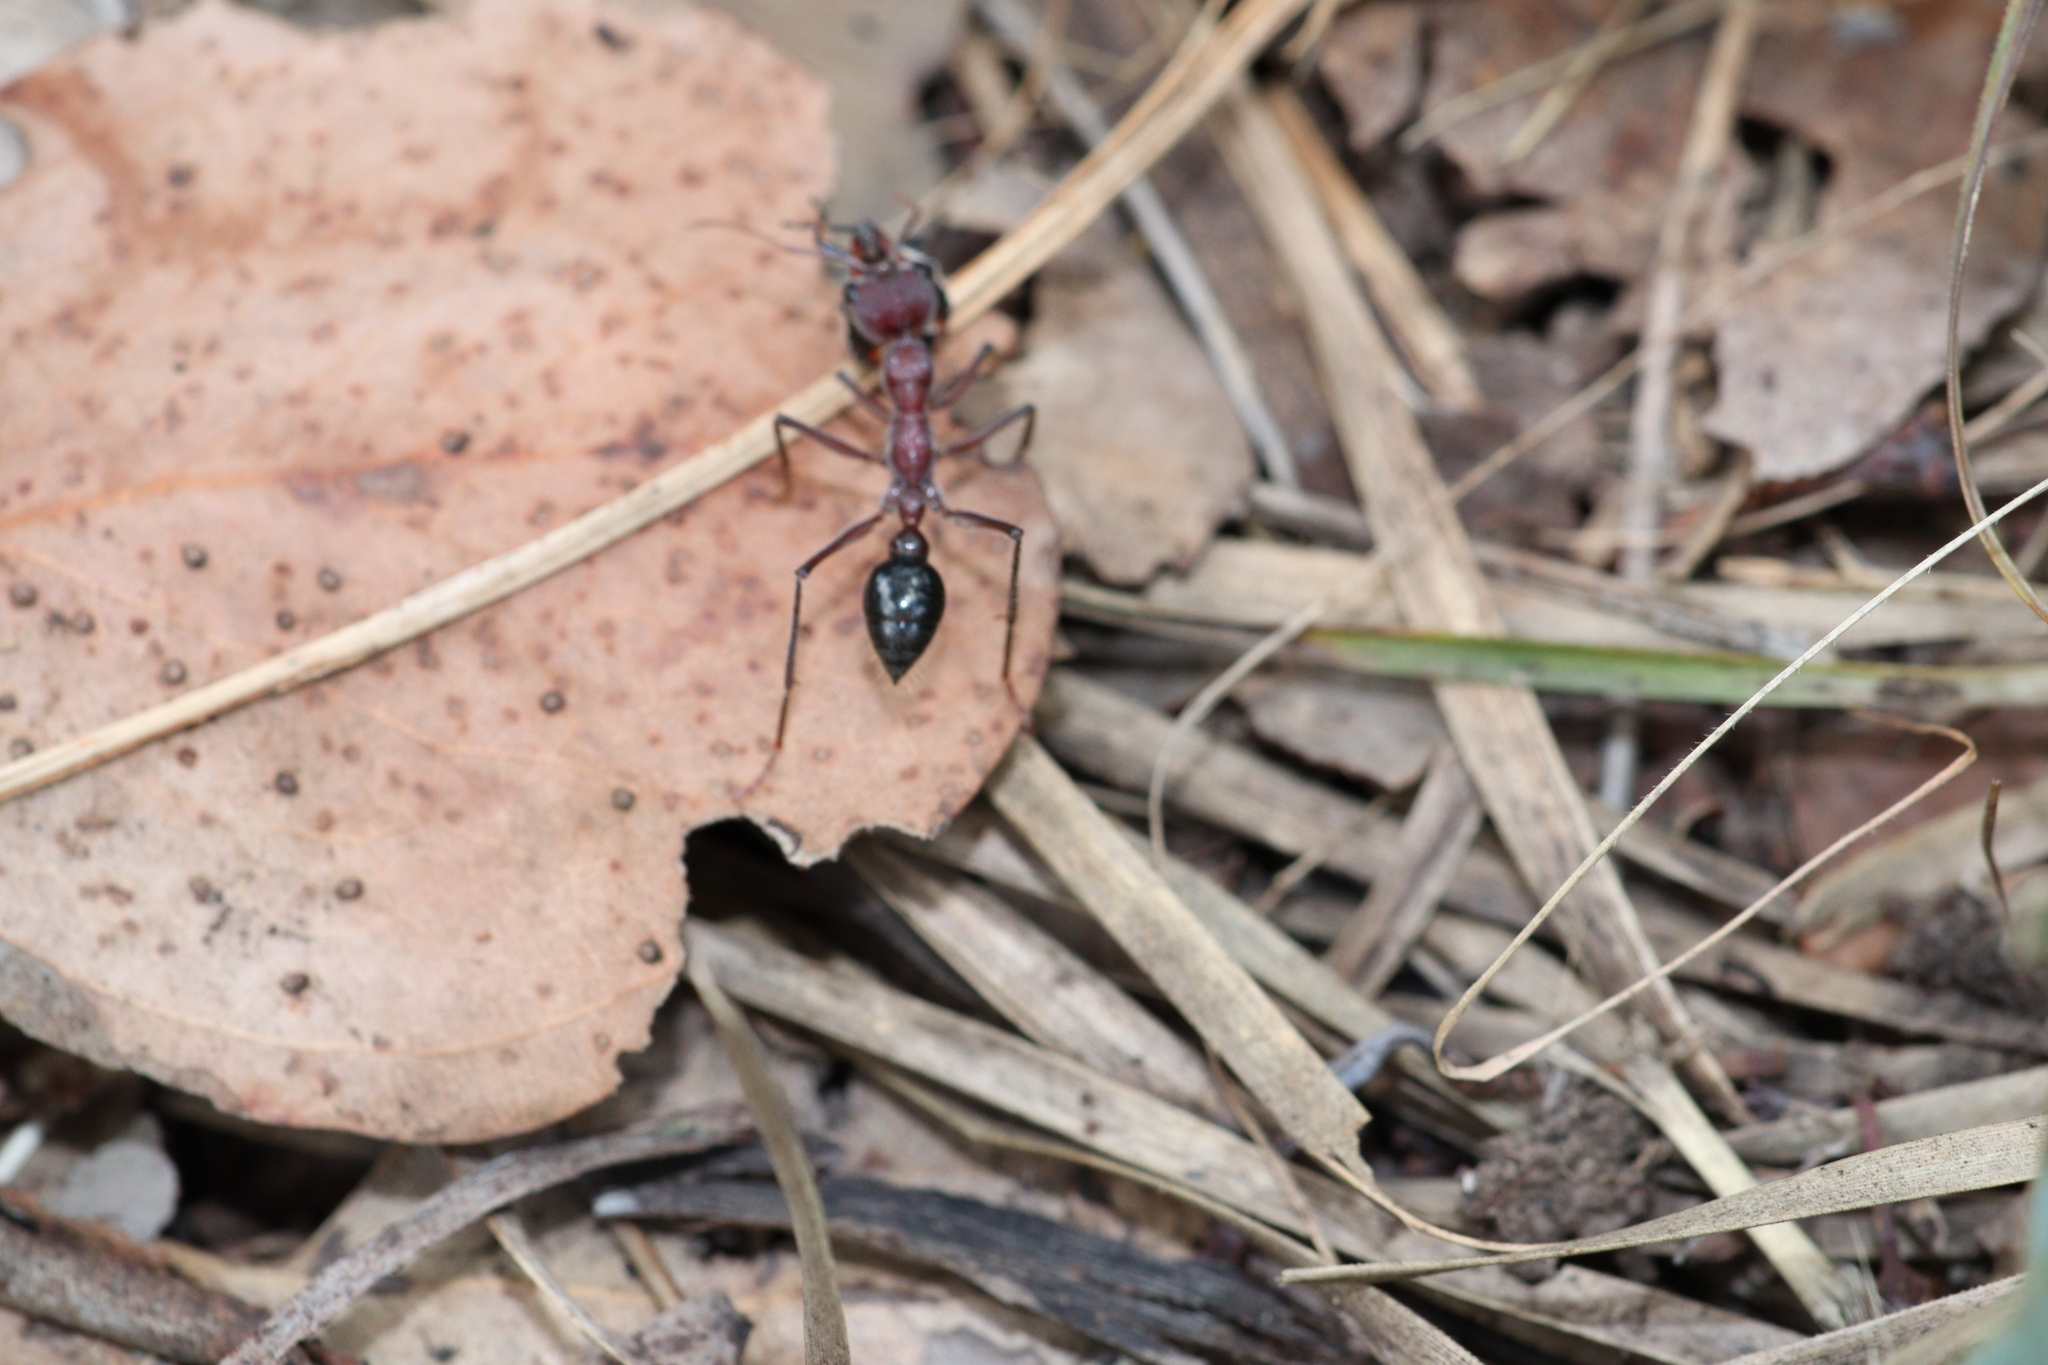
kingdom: Animalia
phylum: Arthropoda
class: Insecta
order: Hymenoptera
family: Formicidae
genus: Myrmecia
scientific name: Myrmecia simillima
